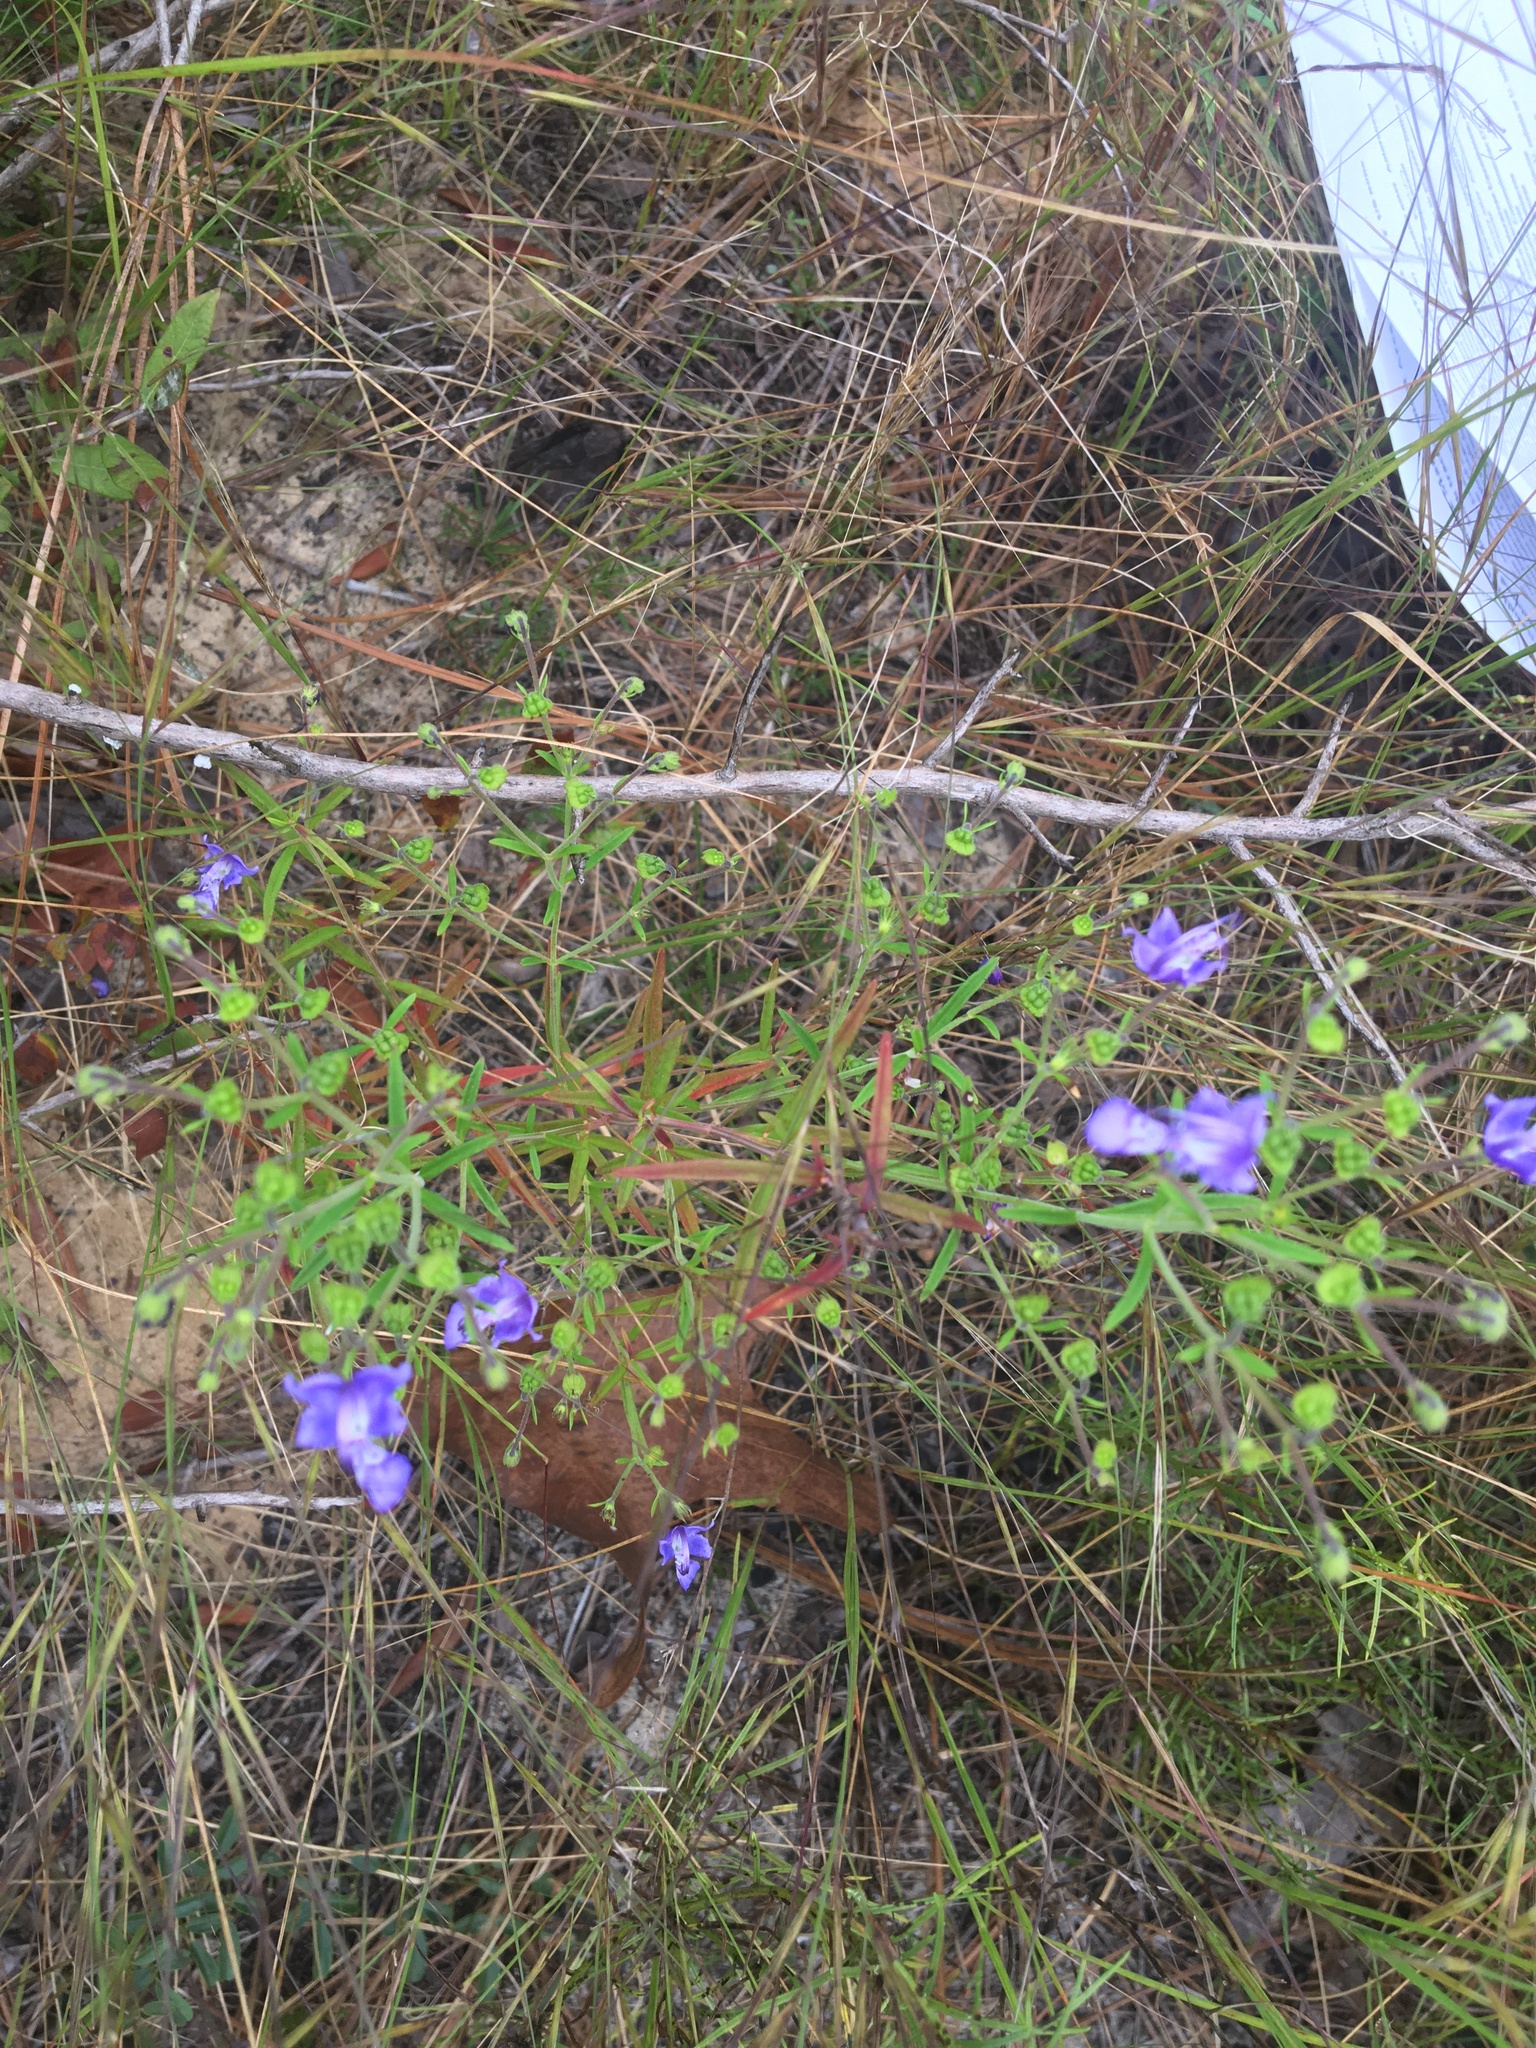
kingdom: Plantae
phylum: Tracheophyta
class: Magnoliopsida
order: Lamiales
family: Lamiaceae
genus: Trichostema
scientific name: Trichostema setaceum
